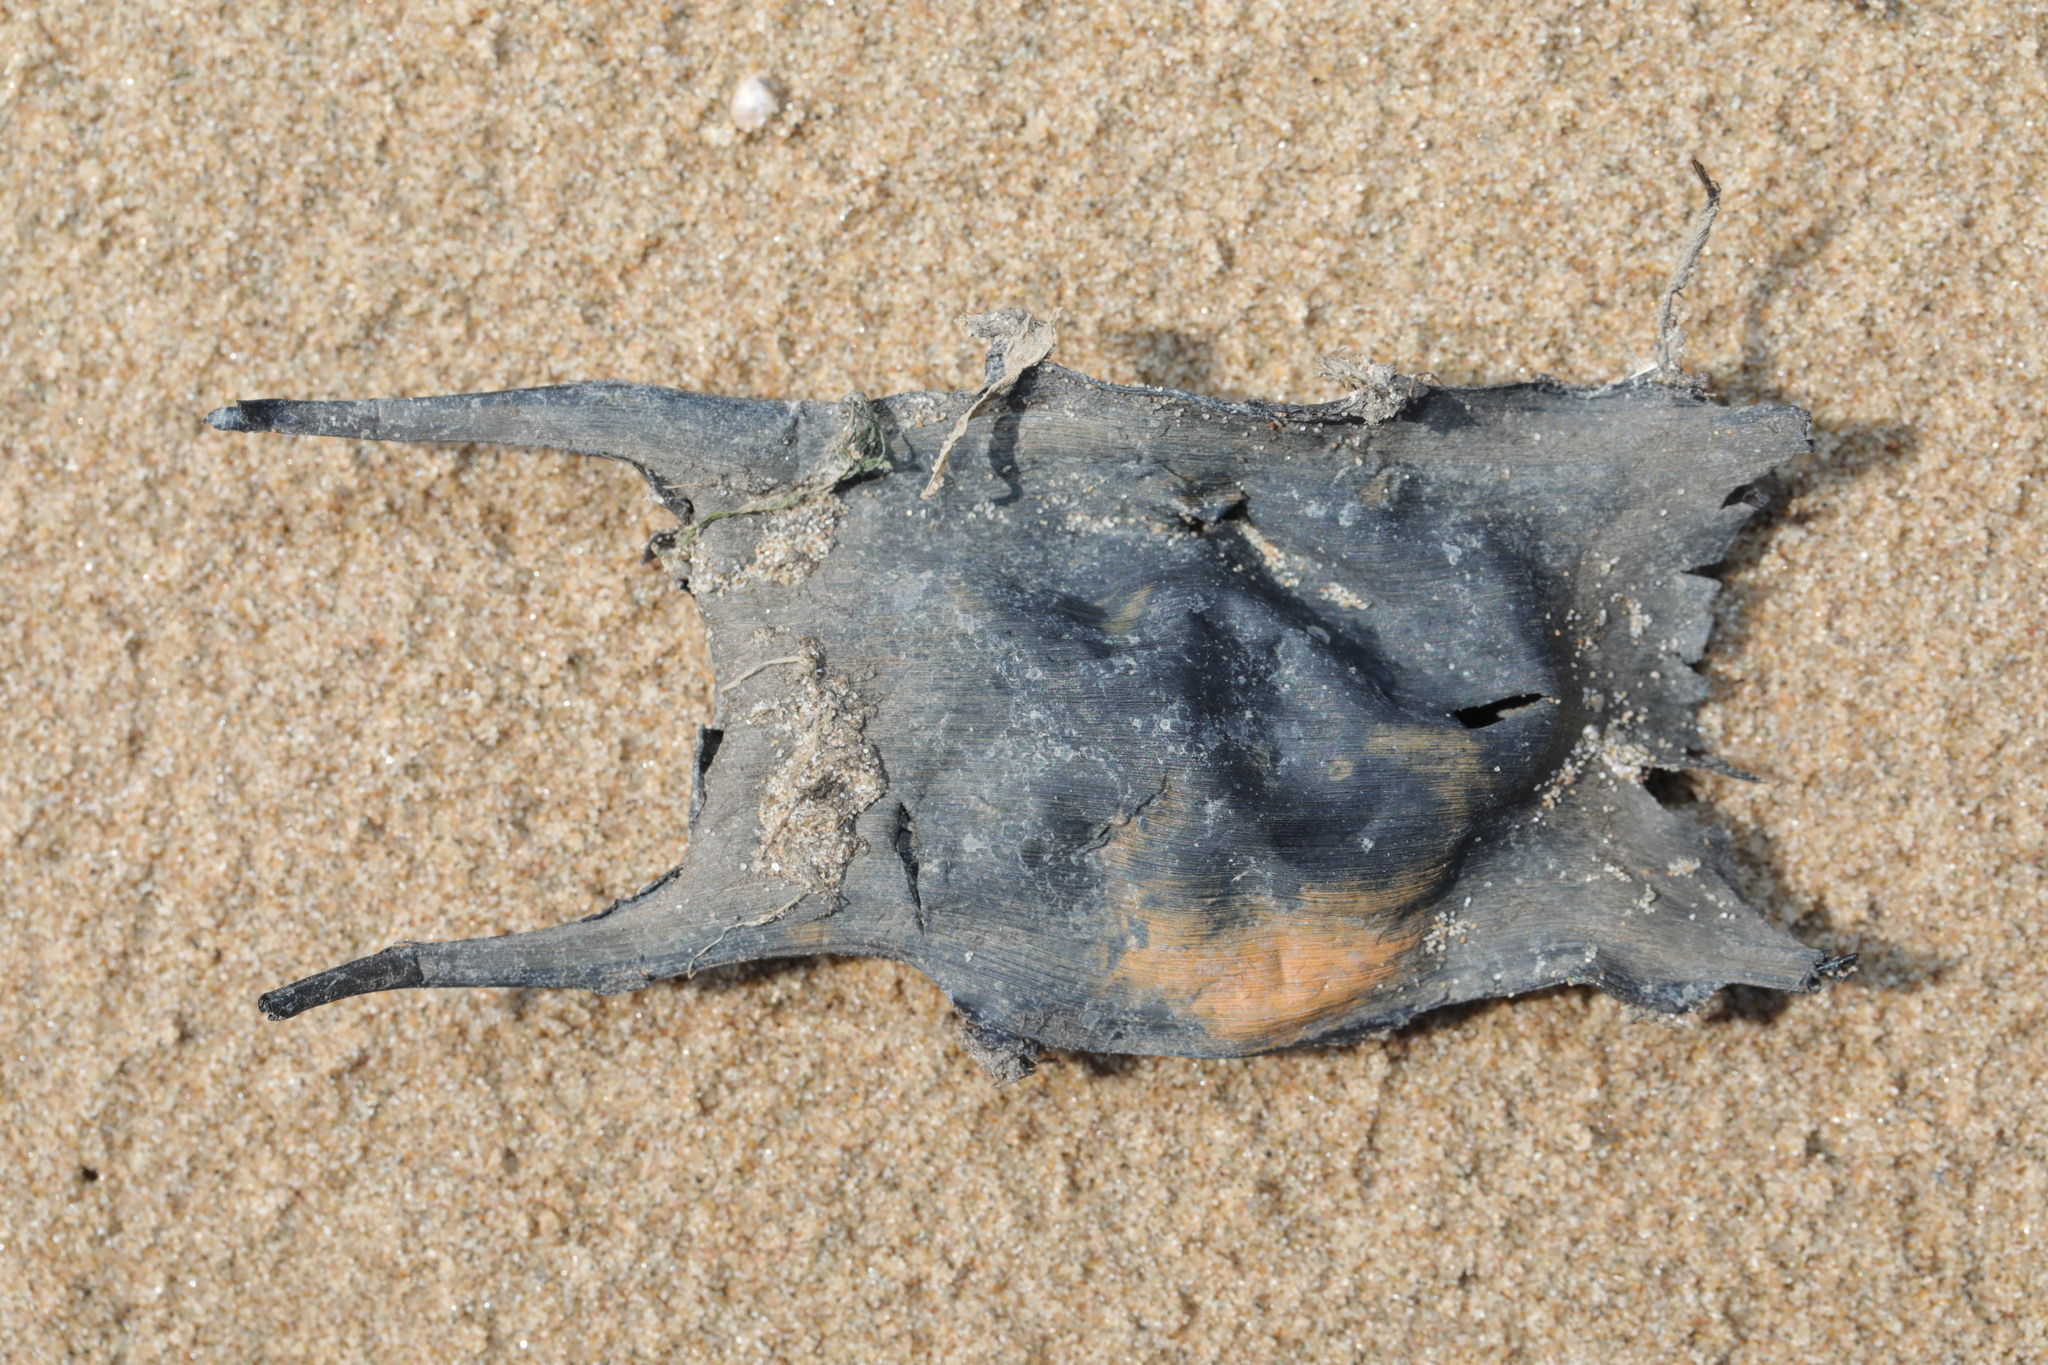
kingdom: Animalia
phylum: Chordata
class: Elasmobranchii
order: Rajiformes
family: Rajidae
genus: Raja
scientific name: Raja clavata
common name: Thornback ray
